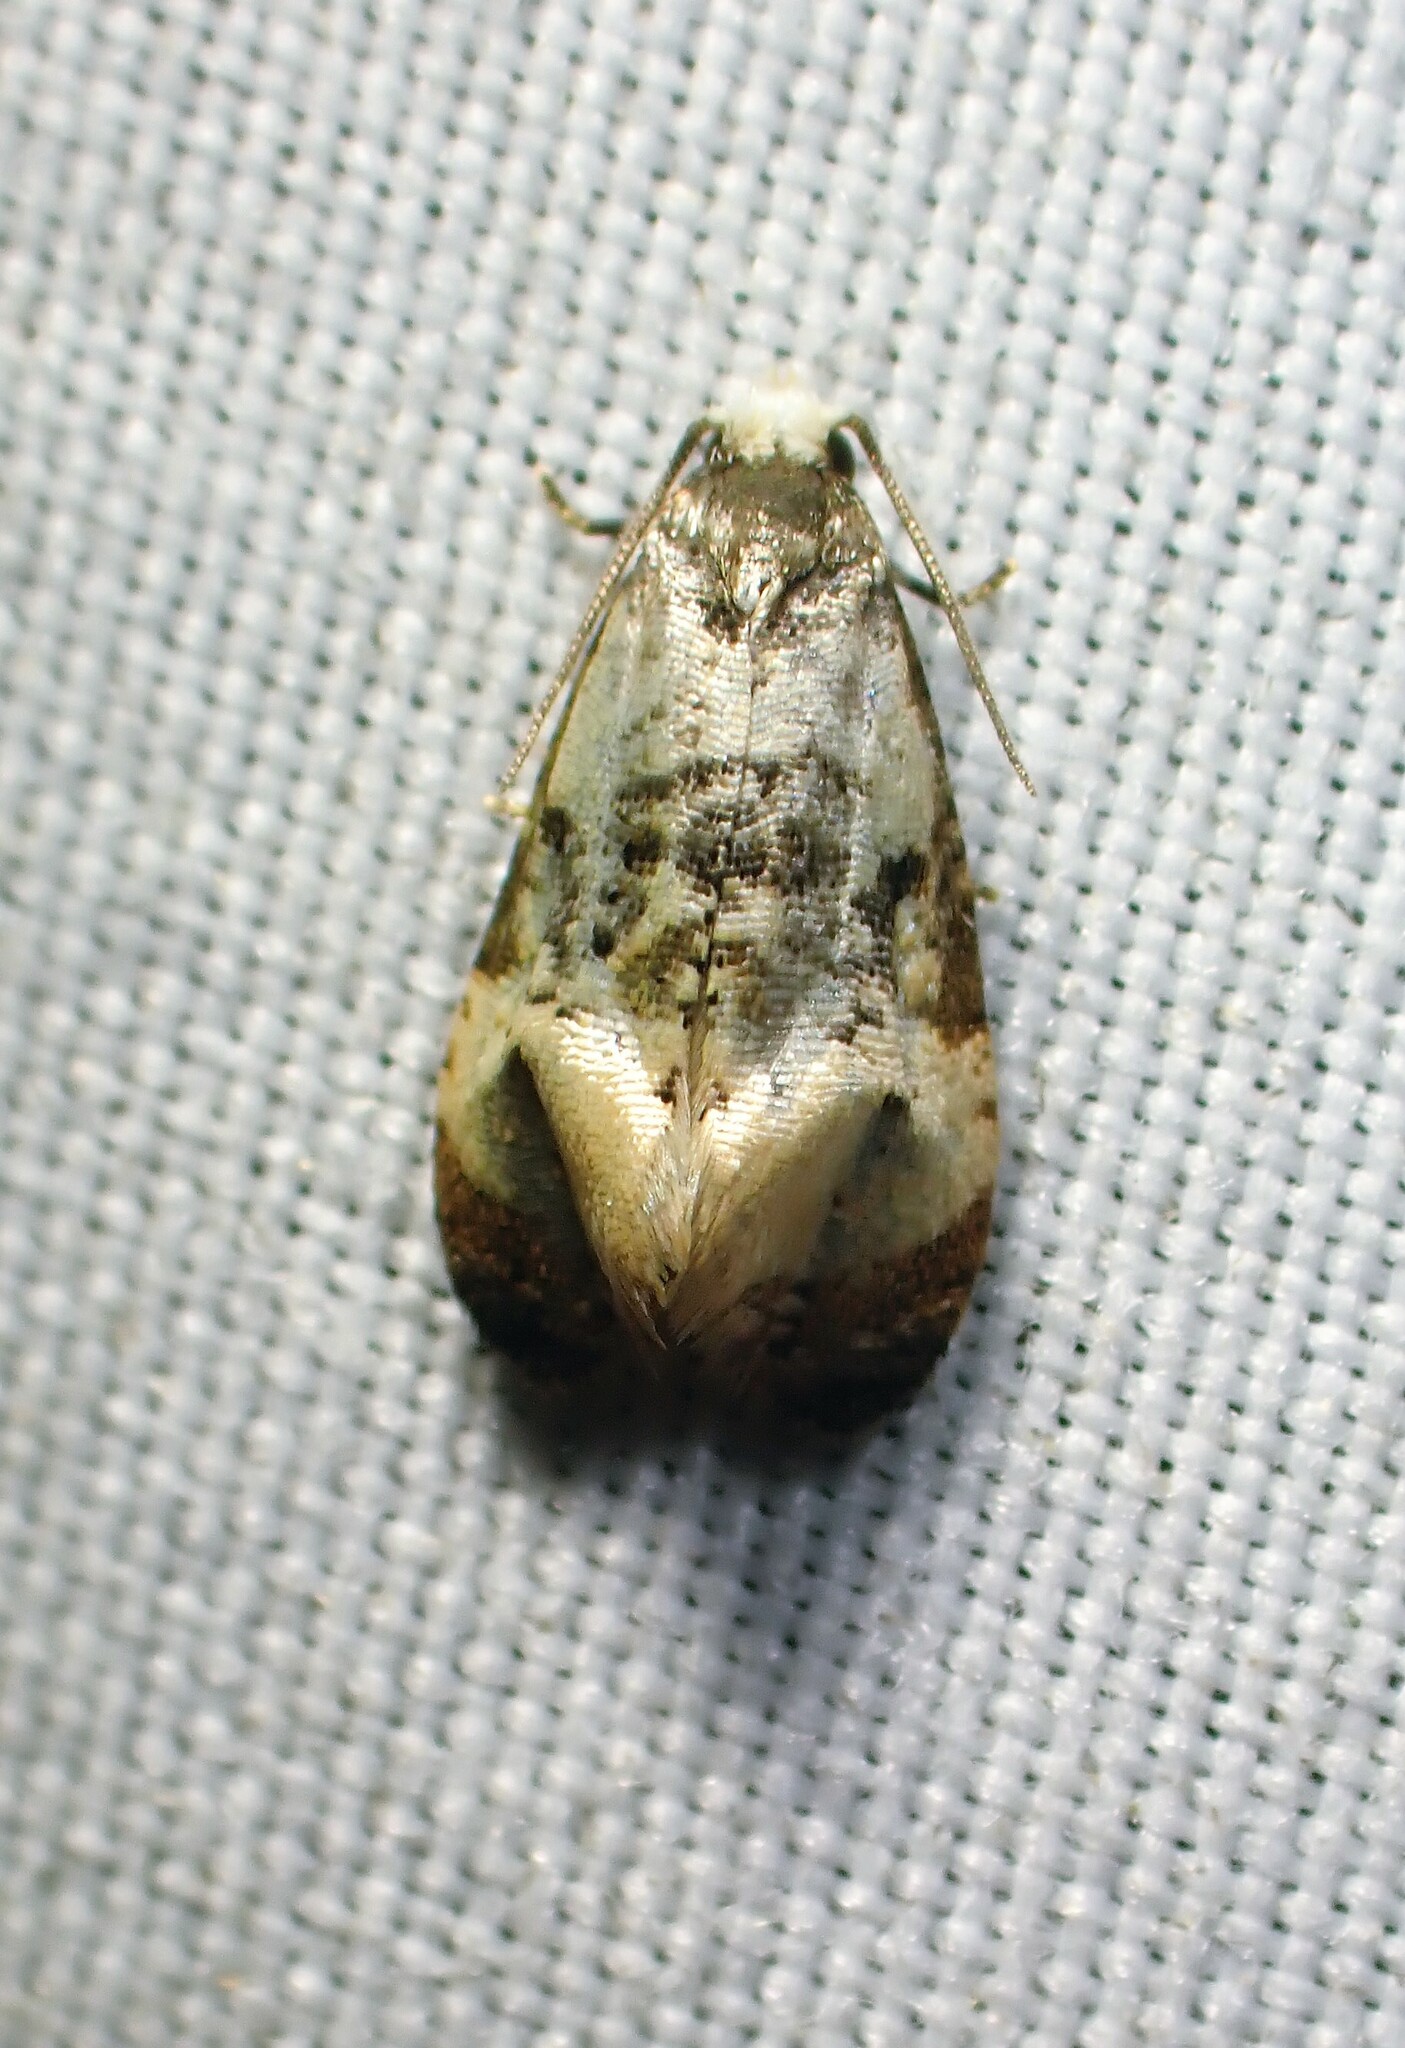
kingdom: Animalia
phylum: Arthropoda
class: Insecta
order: Lepidoptera
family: Tortricidae
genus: Phalonidia
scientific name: Phalonidia memoranda
